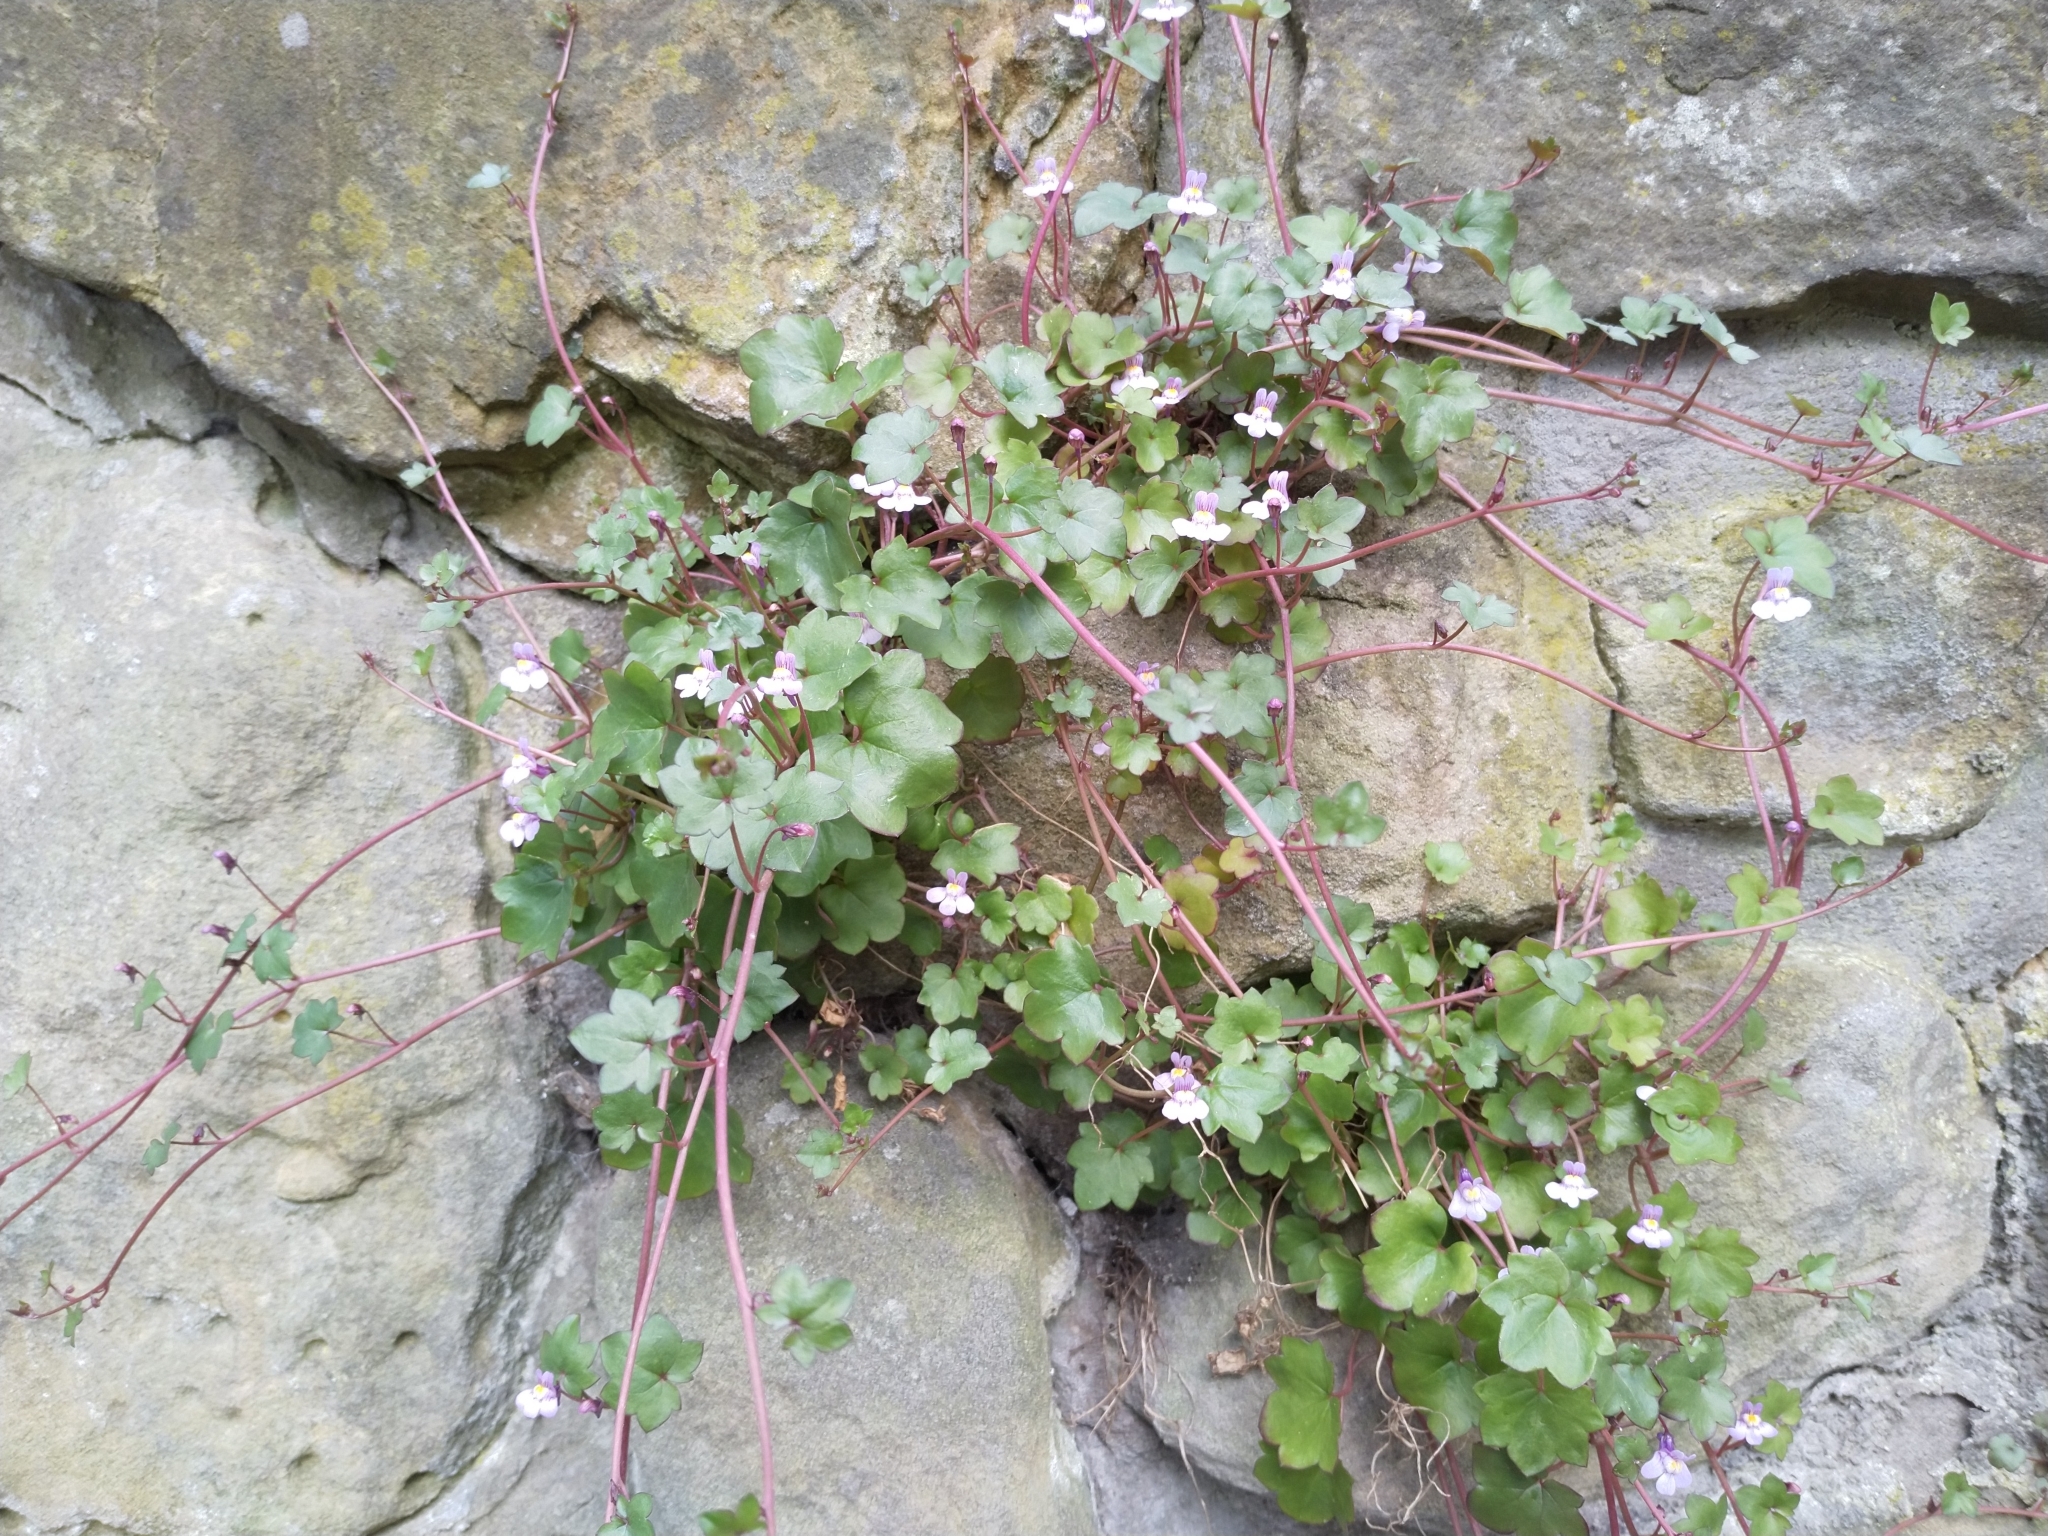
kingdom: Plantae
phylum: Tracheophyta
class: Magnoliopsida
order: Lamiales
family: Plantaginaceae
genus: Cymbalaria
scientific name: Cymbalaria muralis
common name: Ivy-leaved toadflax
